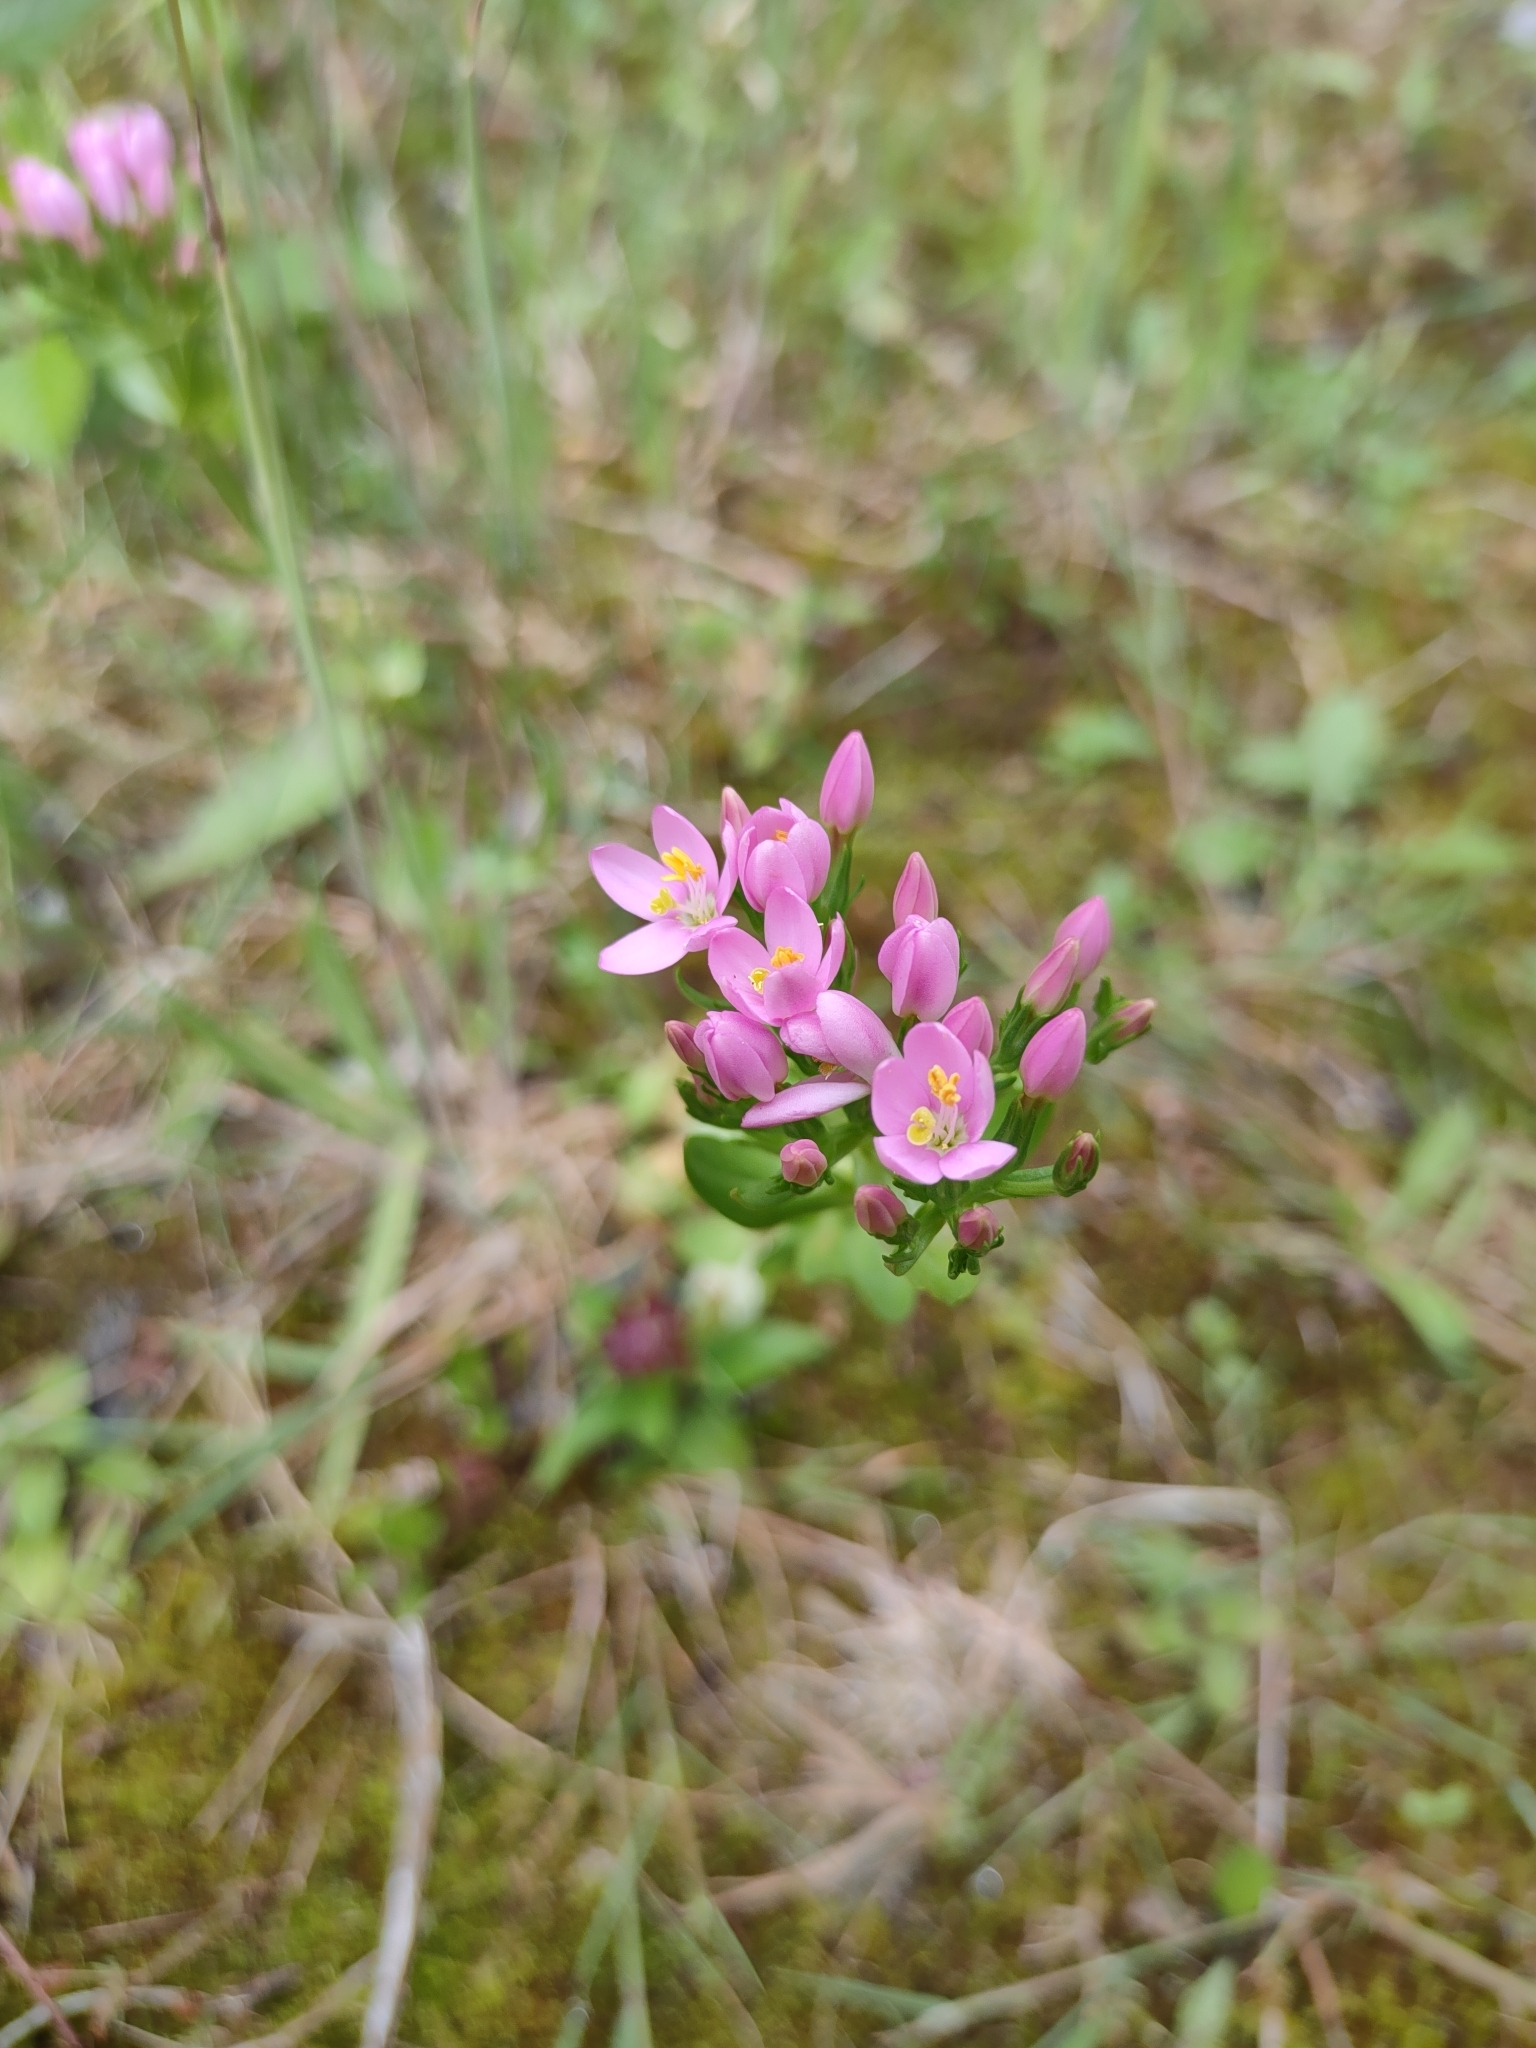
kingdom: Plantae
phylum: Tracheophyta
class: Magnoliopsida
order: Gentianales
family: Gentianaceae
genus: Centaurium
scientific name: Centaurium erythraea
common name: Common centaury
